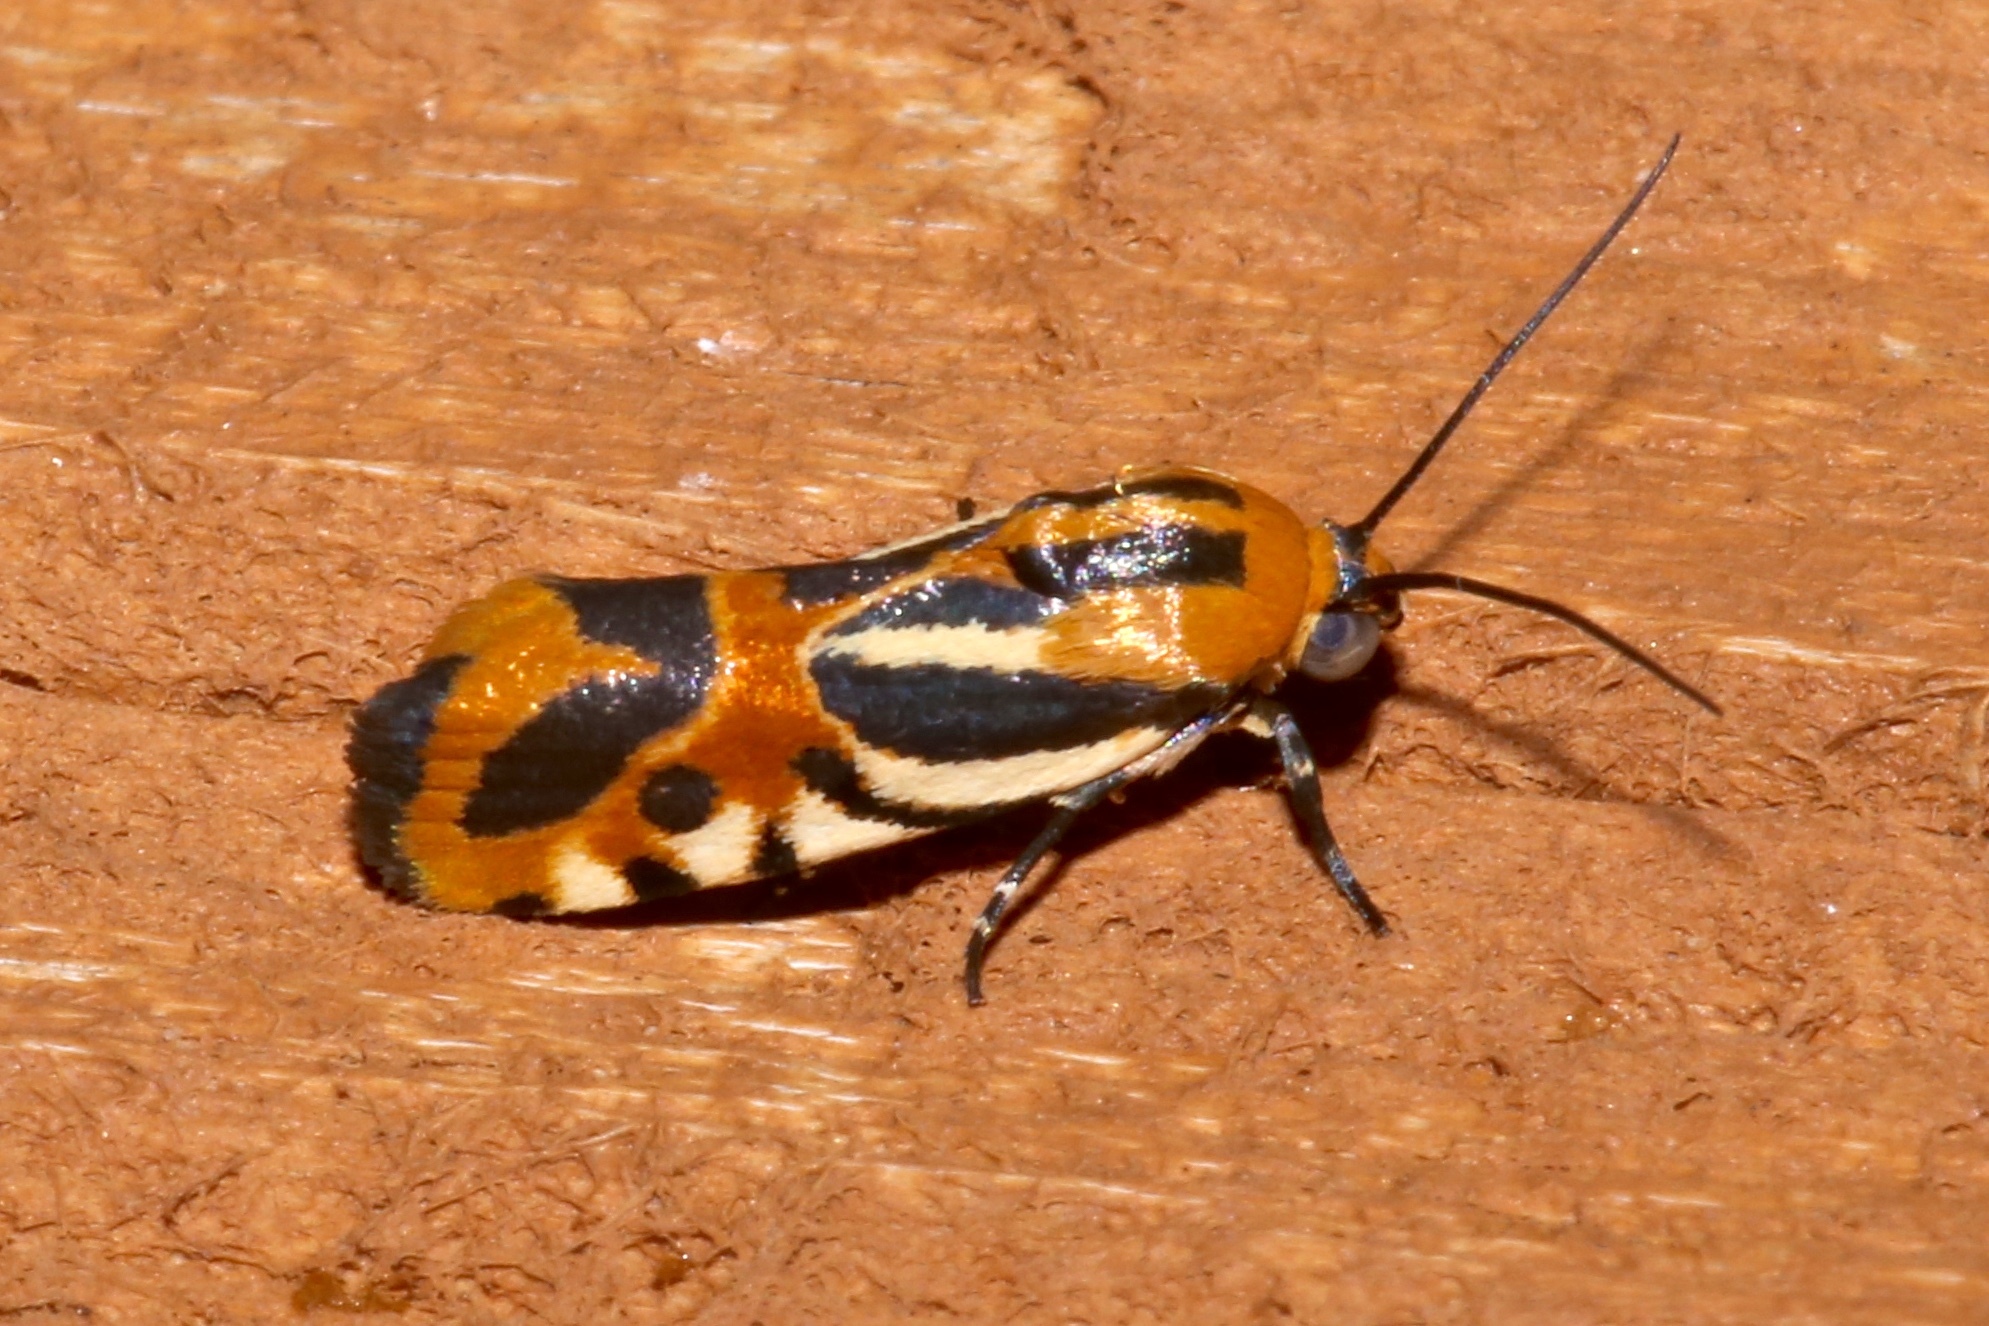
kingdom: Animalia
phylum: Arthropoda
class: Insecta
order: Lepidoptera
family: Noctuidae
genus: Acontia
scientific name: Acontia onagrus
